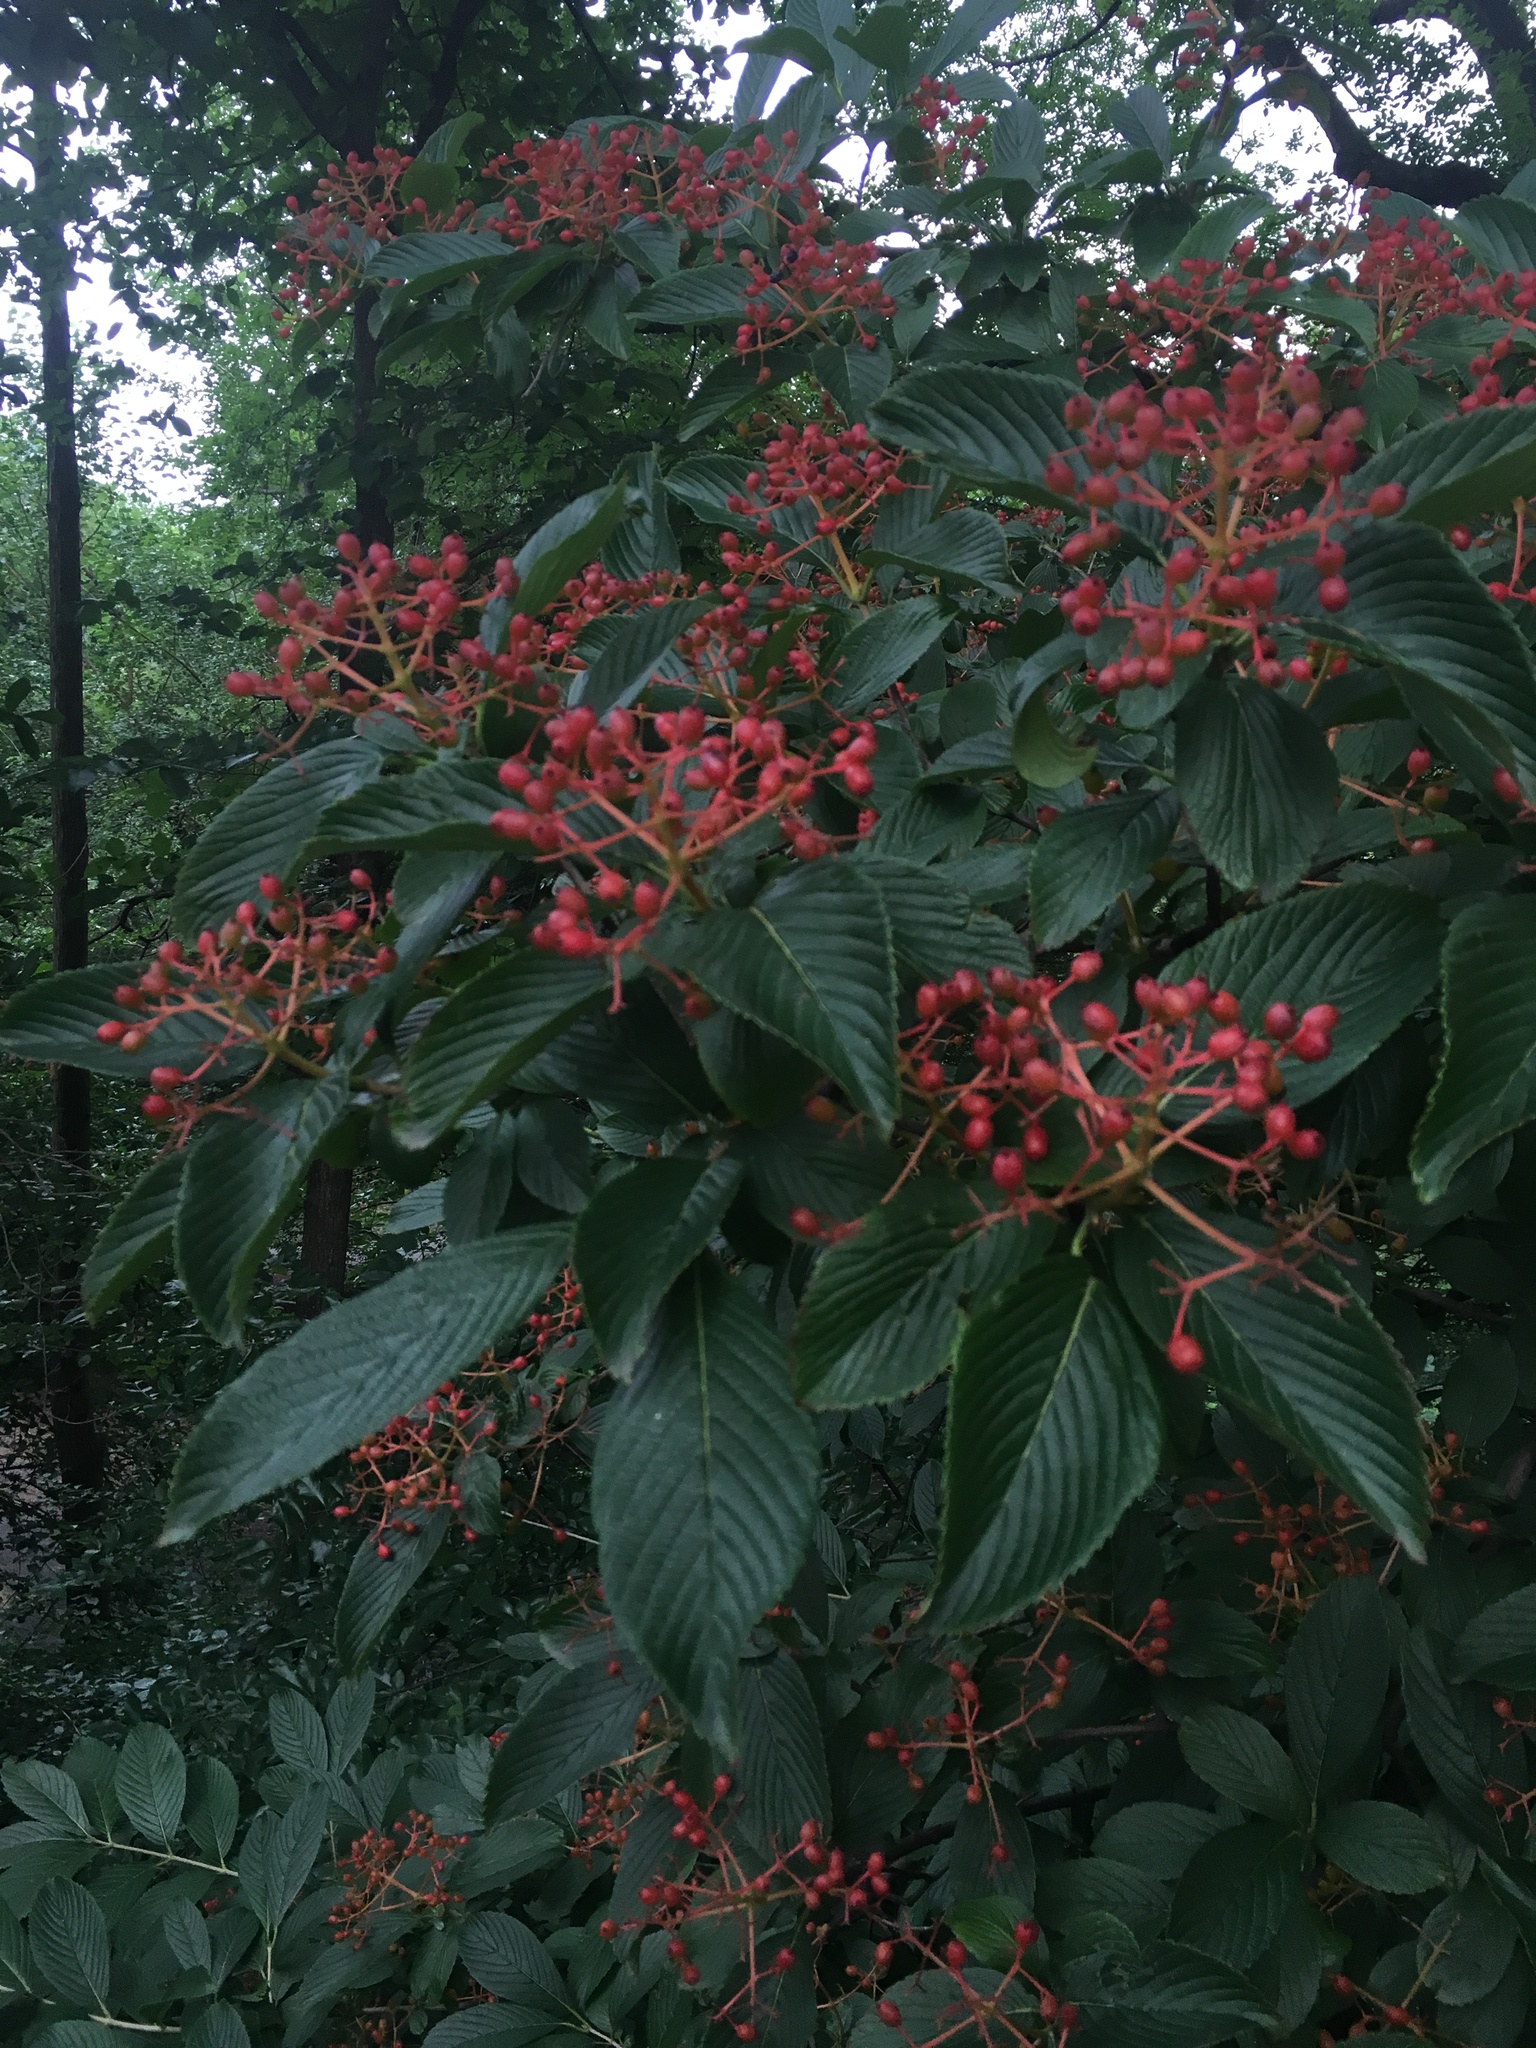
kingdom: Plantae
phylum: Tracheophyta
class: Magnoliopsida
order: Dipsacales
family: Viburnaceae
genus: Viburnum
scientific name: Viburnum sieboldii
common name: Siebold's arrowwood
